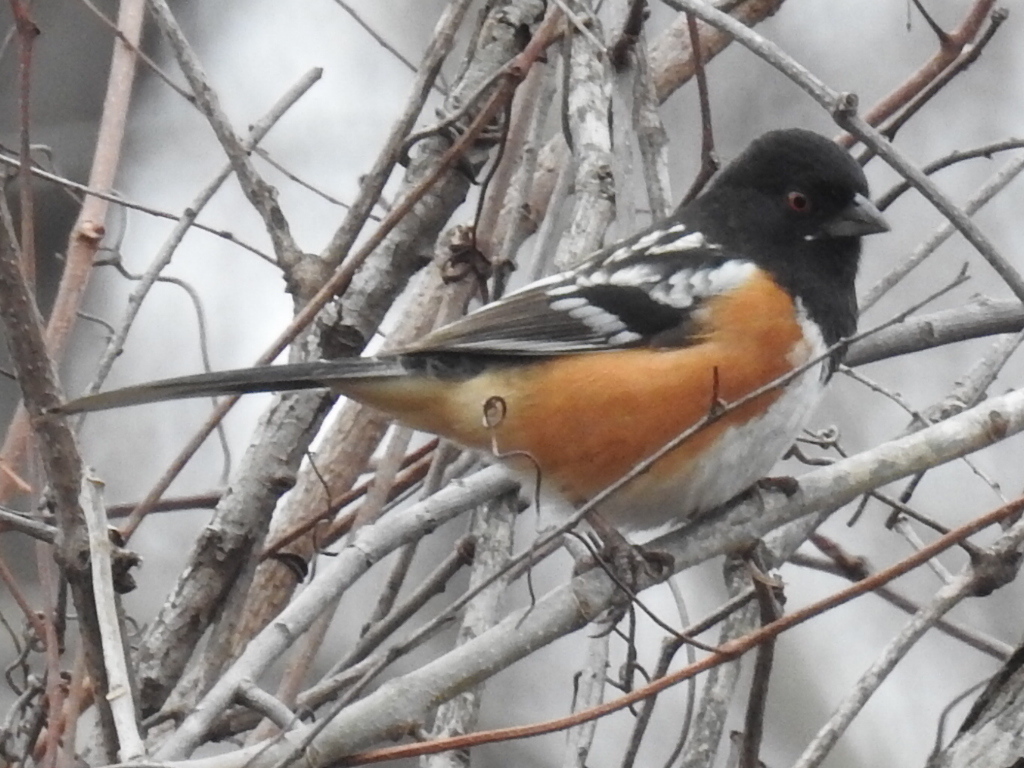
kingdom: Animalia
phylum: Chordata
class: Aves
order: Passeriformes
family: Passerellidae
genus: Pipilo
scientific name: Pipilo maculatus
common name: Spotted towhee
